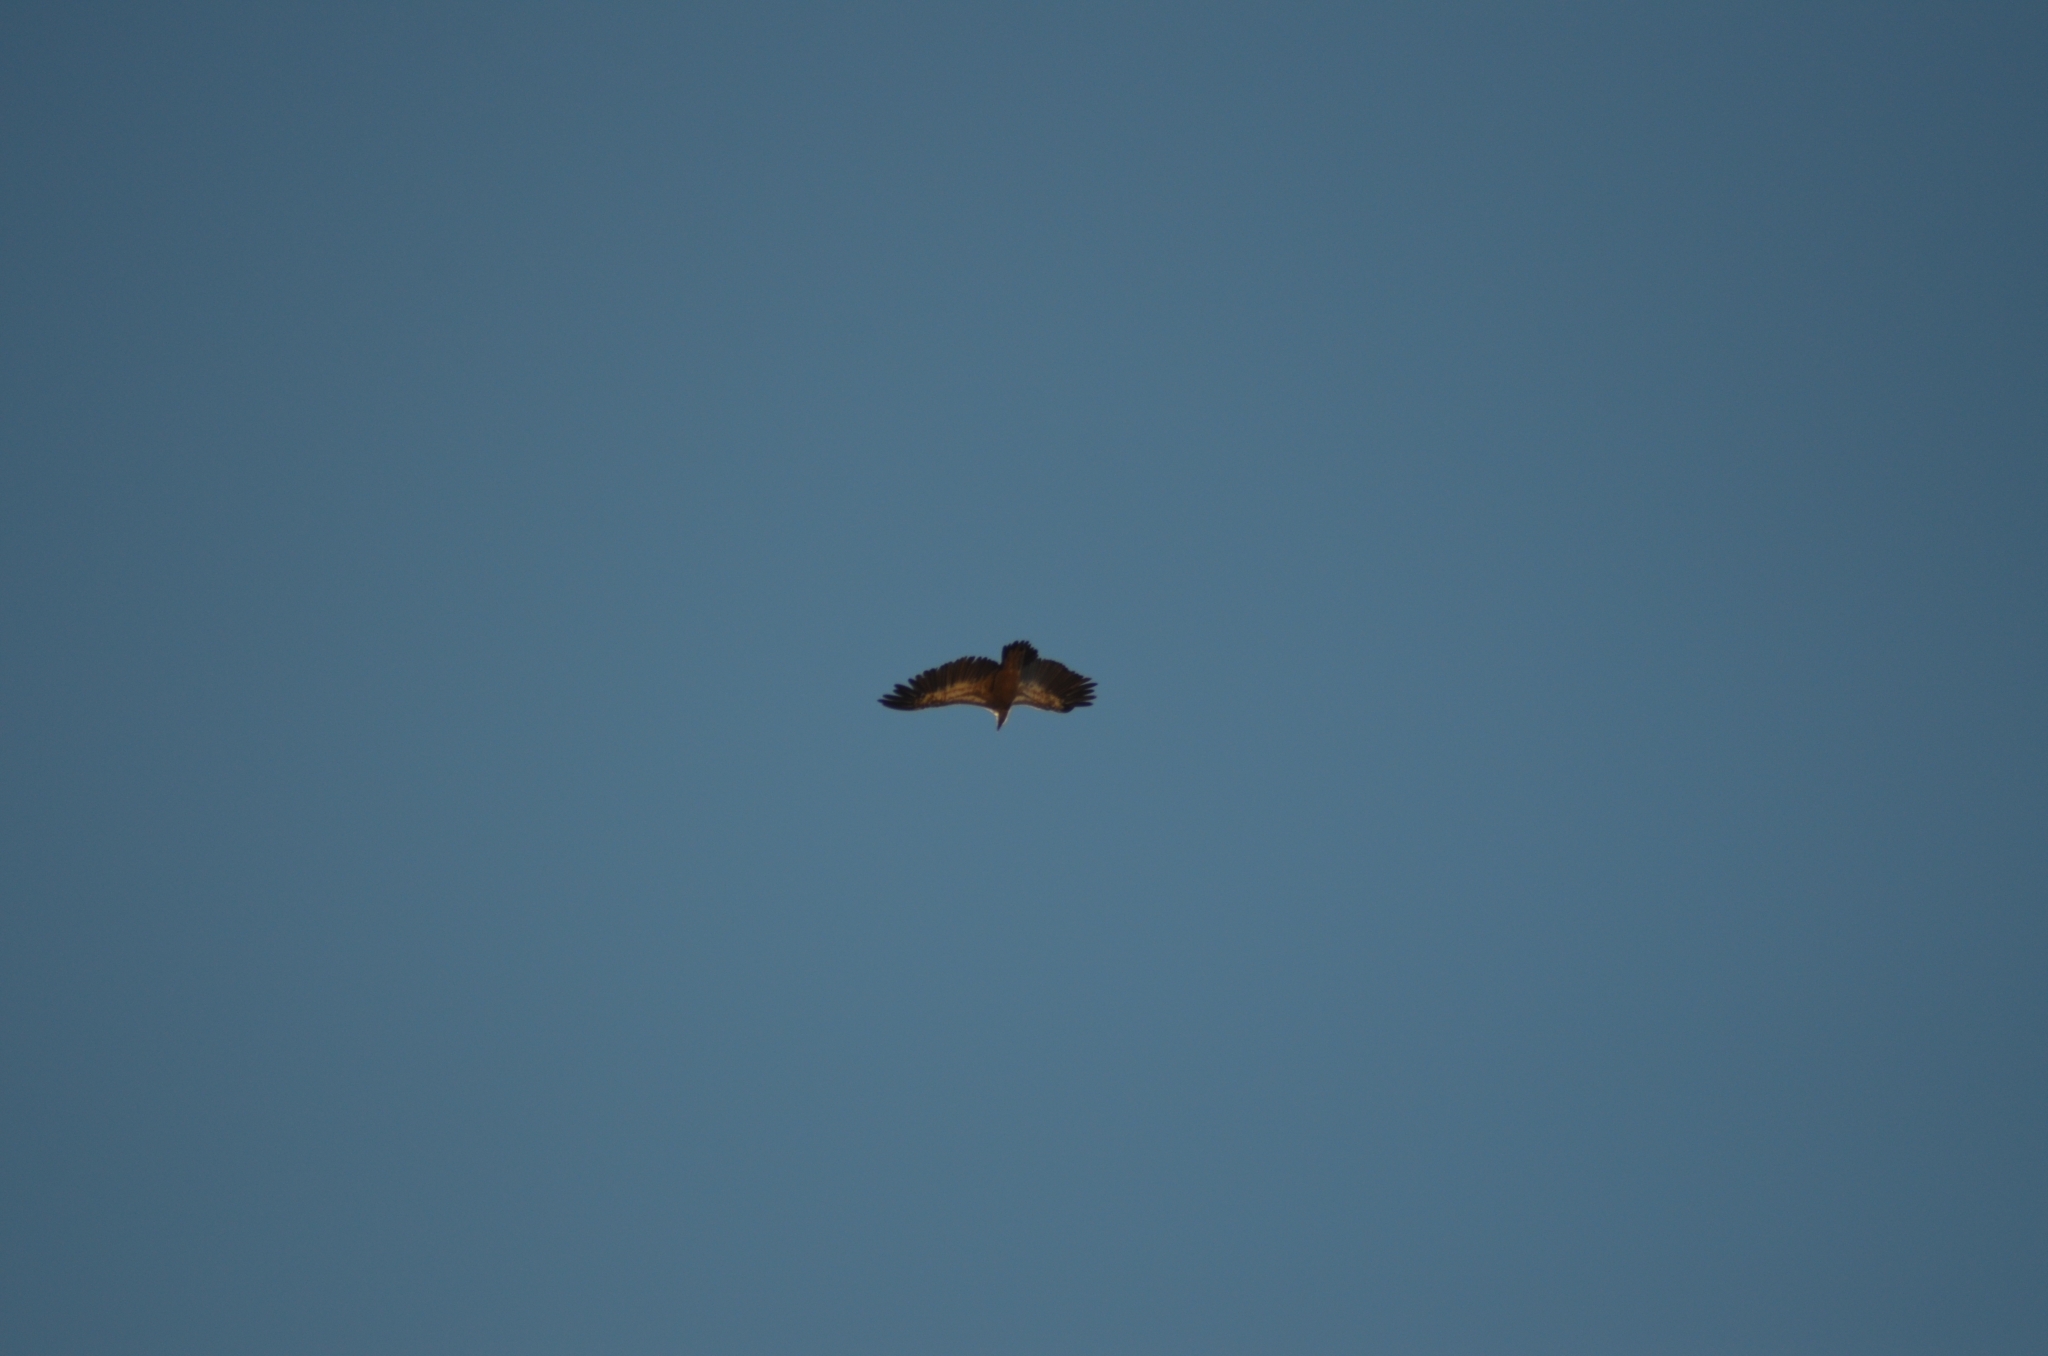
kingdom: Animalia
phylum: Chordata
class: Aves
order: Accipitriformes
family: Accipitridae
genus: Gyps
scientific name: Gyps fulvus
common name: Griffon vulture
